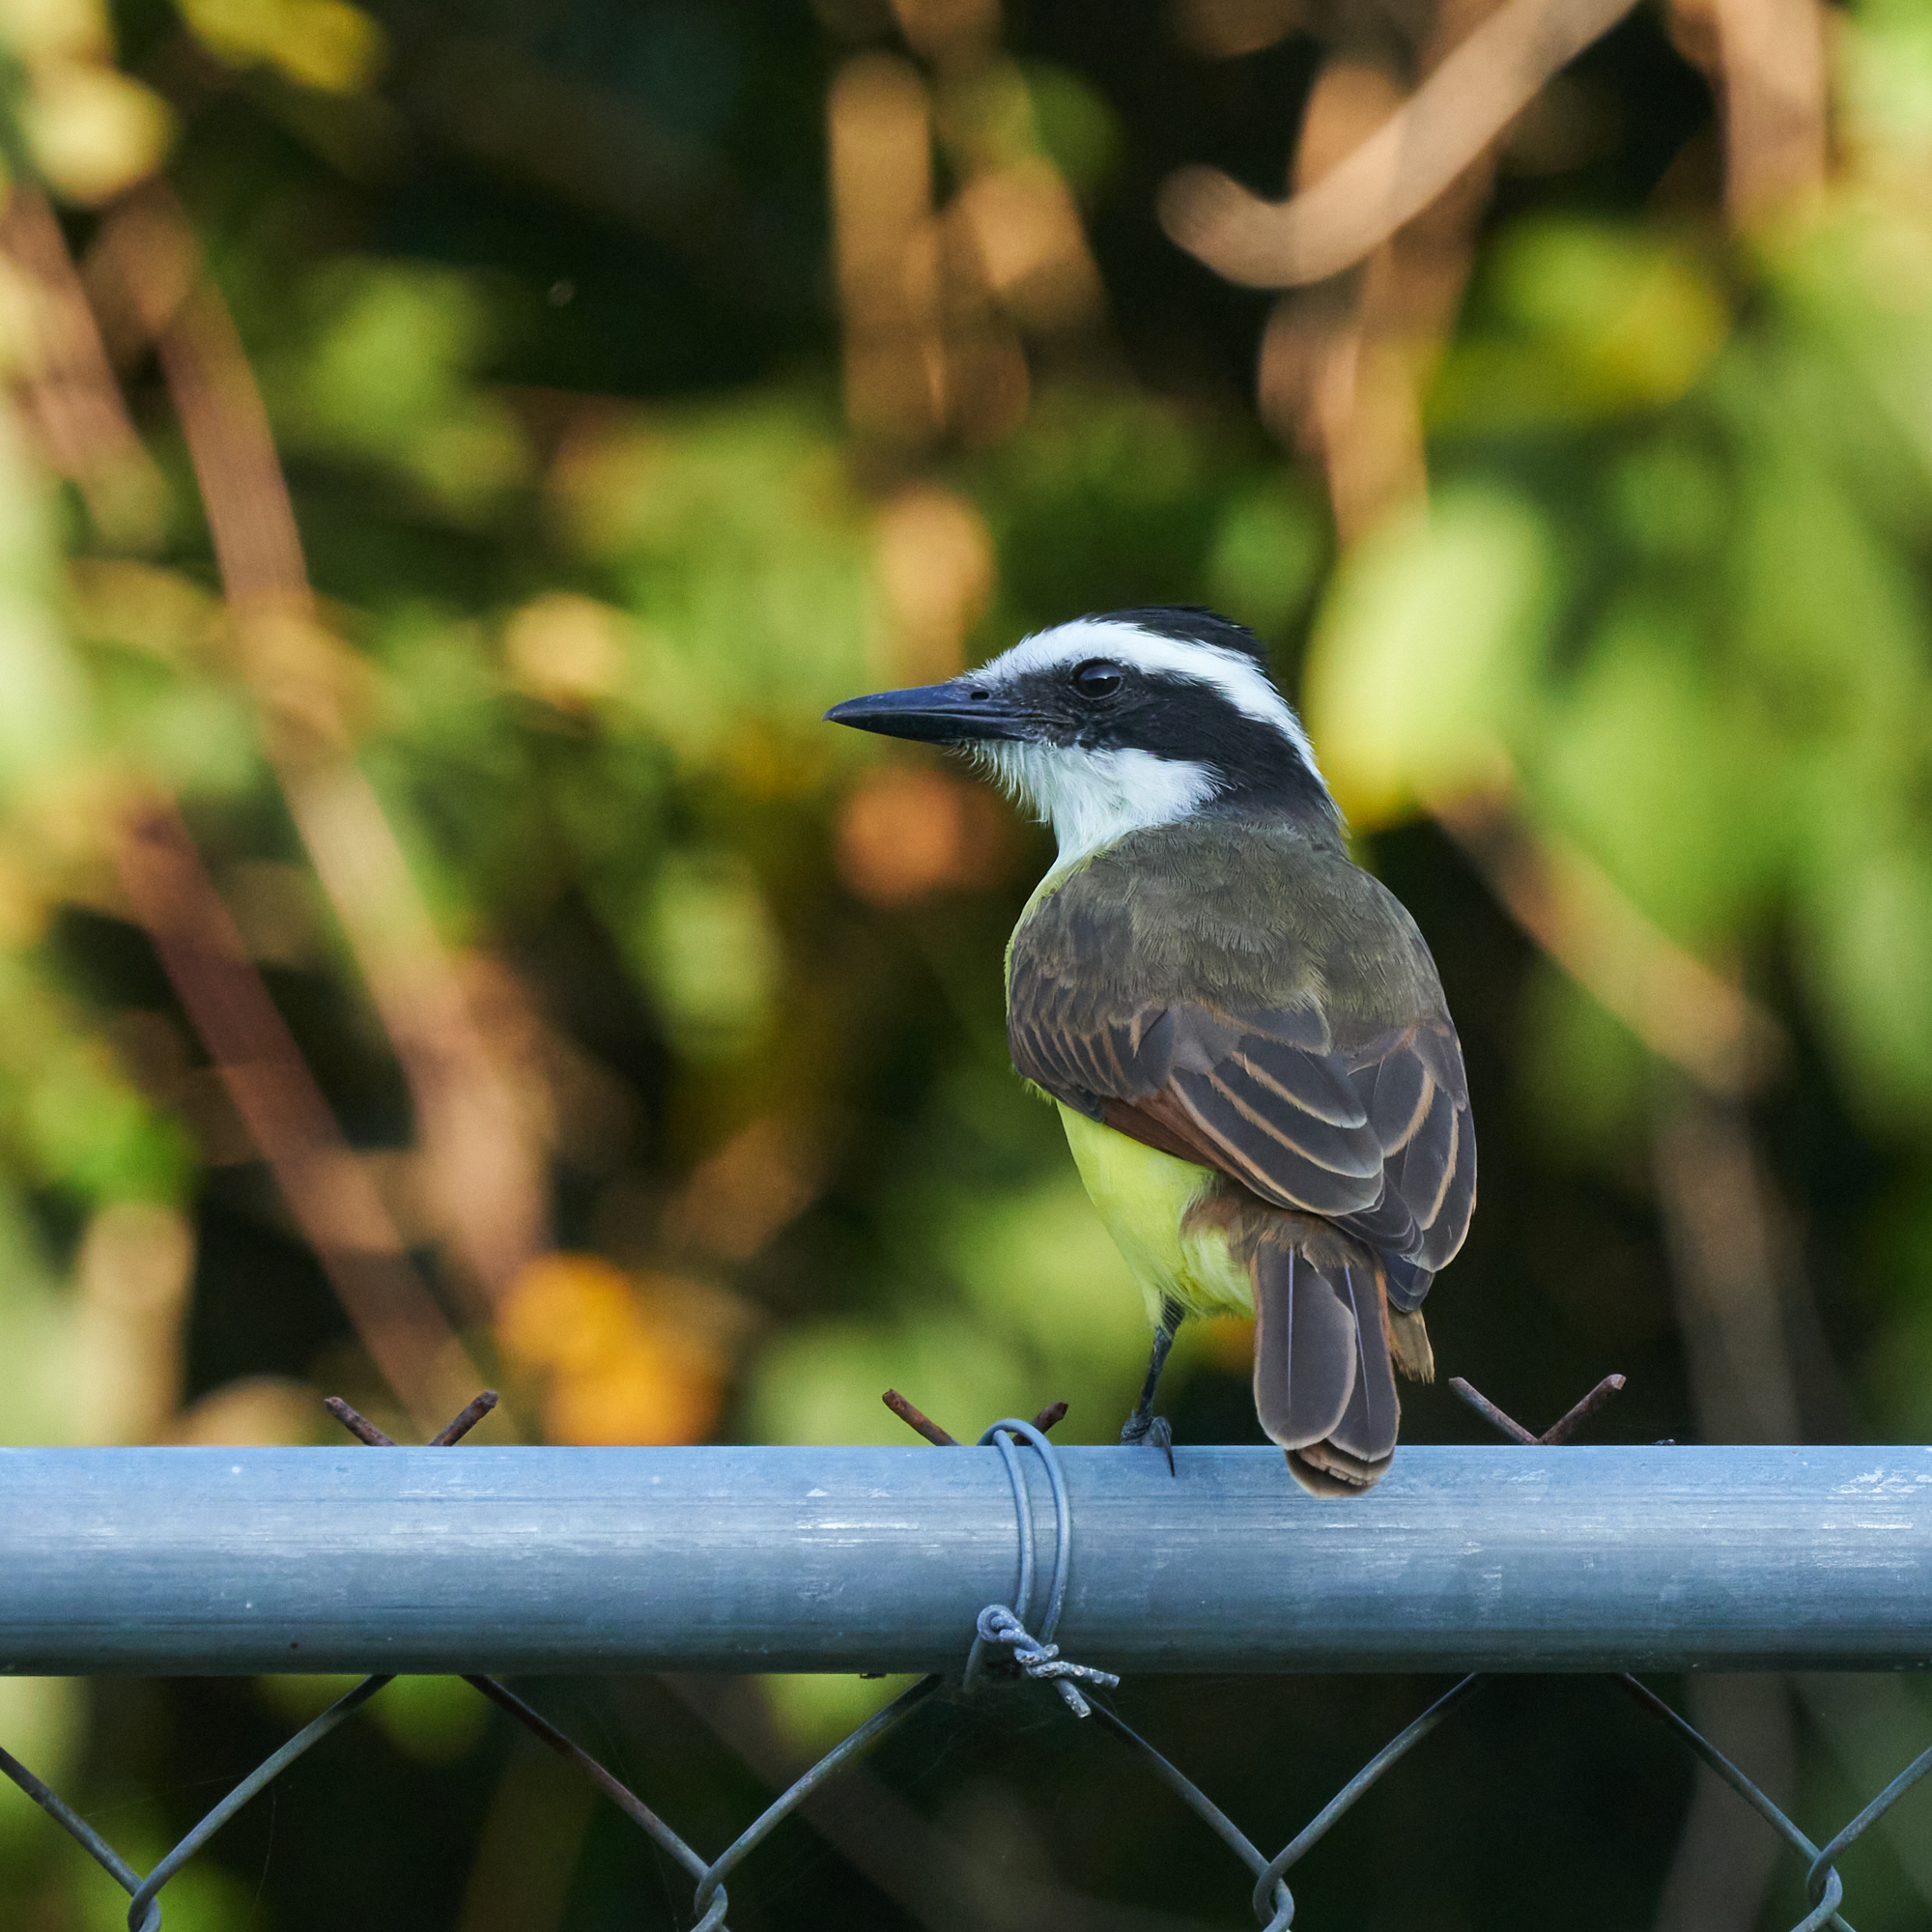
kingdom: Animalia
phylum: Chordata
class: Aves
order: Passeriformes
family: Tyrannidae
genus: Pitangus
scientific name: Pitangus sulphuratus
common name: Great kiskadee
